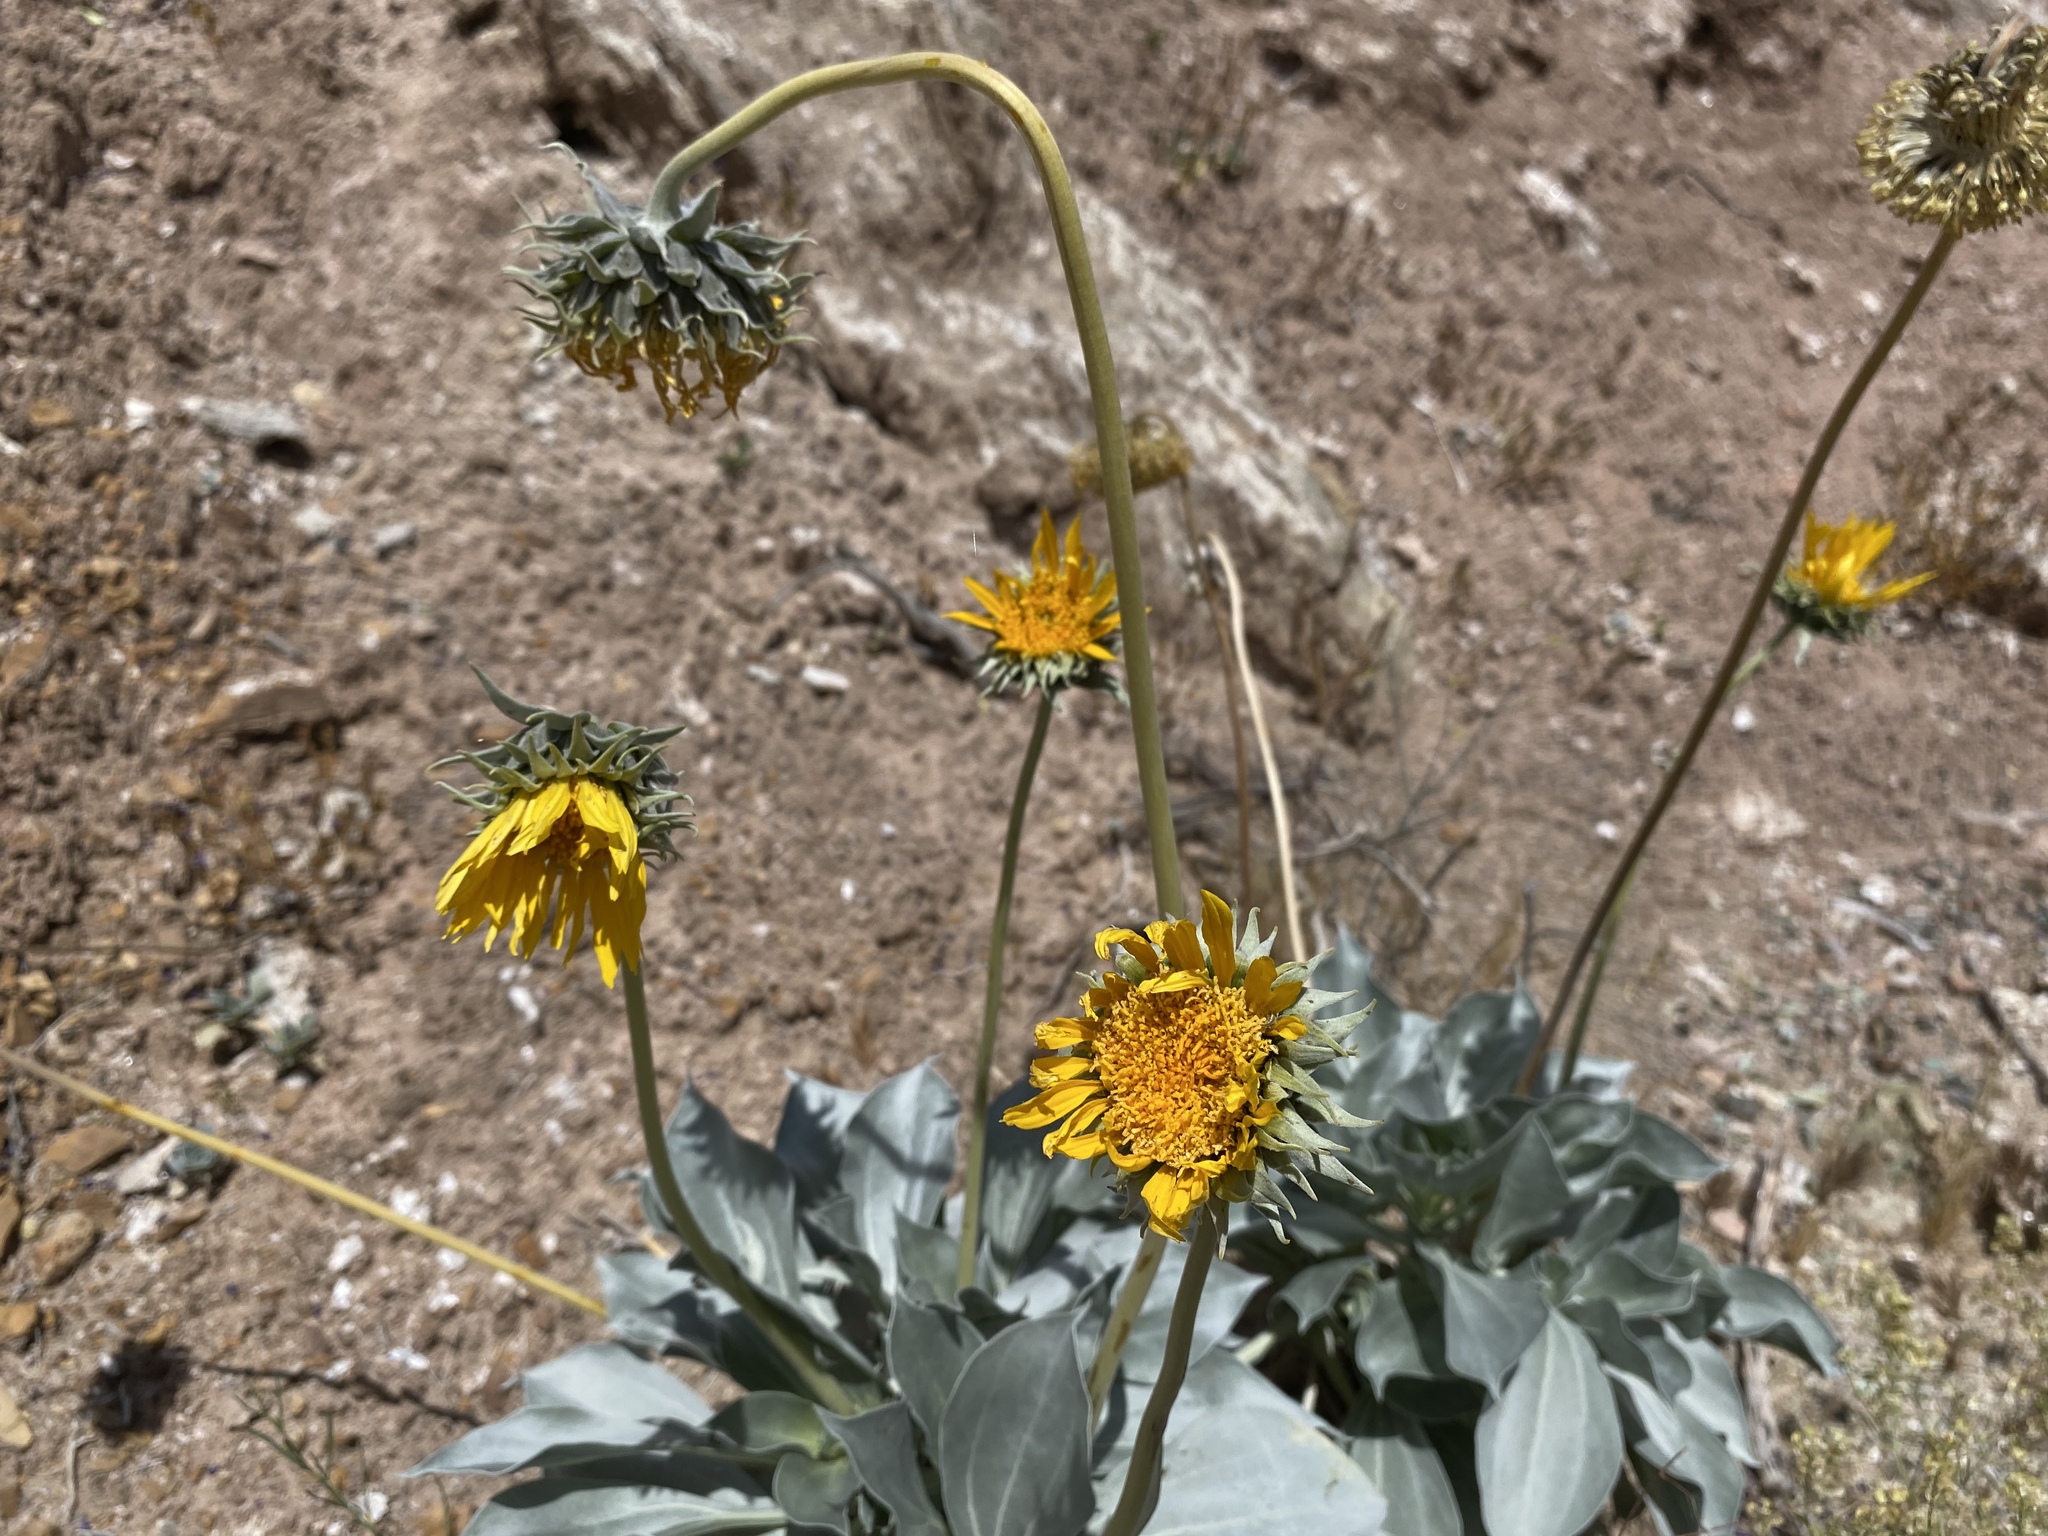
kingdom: Plantae
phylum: Tracheophyta
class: Magnoliopsida
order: Asterales
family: Asteraceae
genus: Enceliopsis
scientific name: Enceliopsis argophylla
